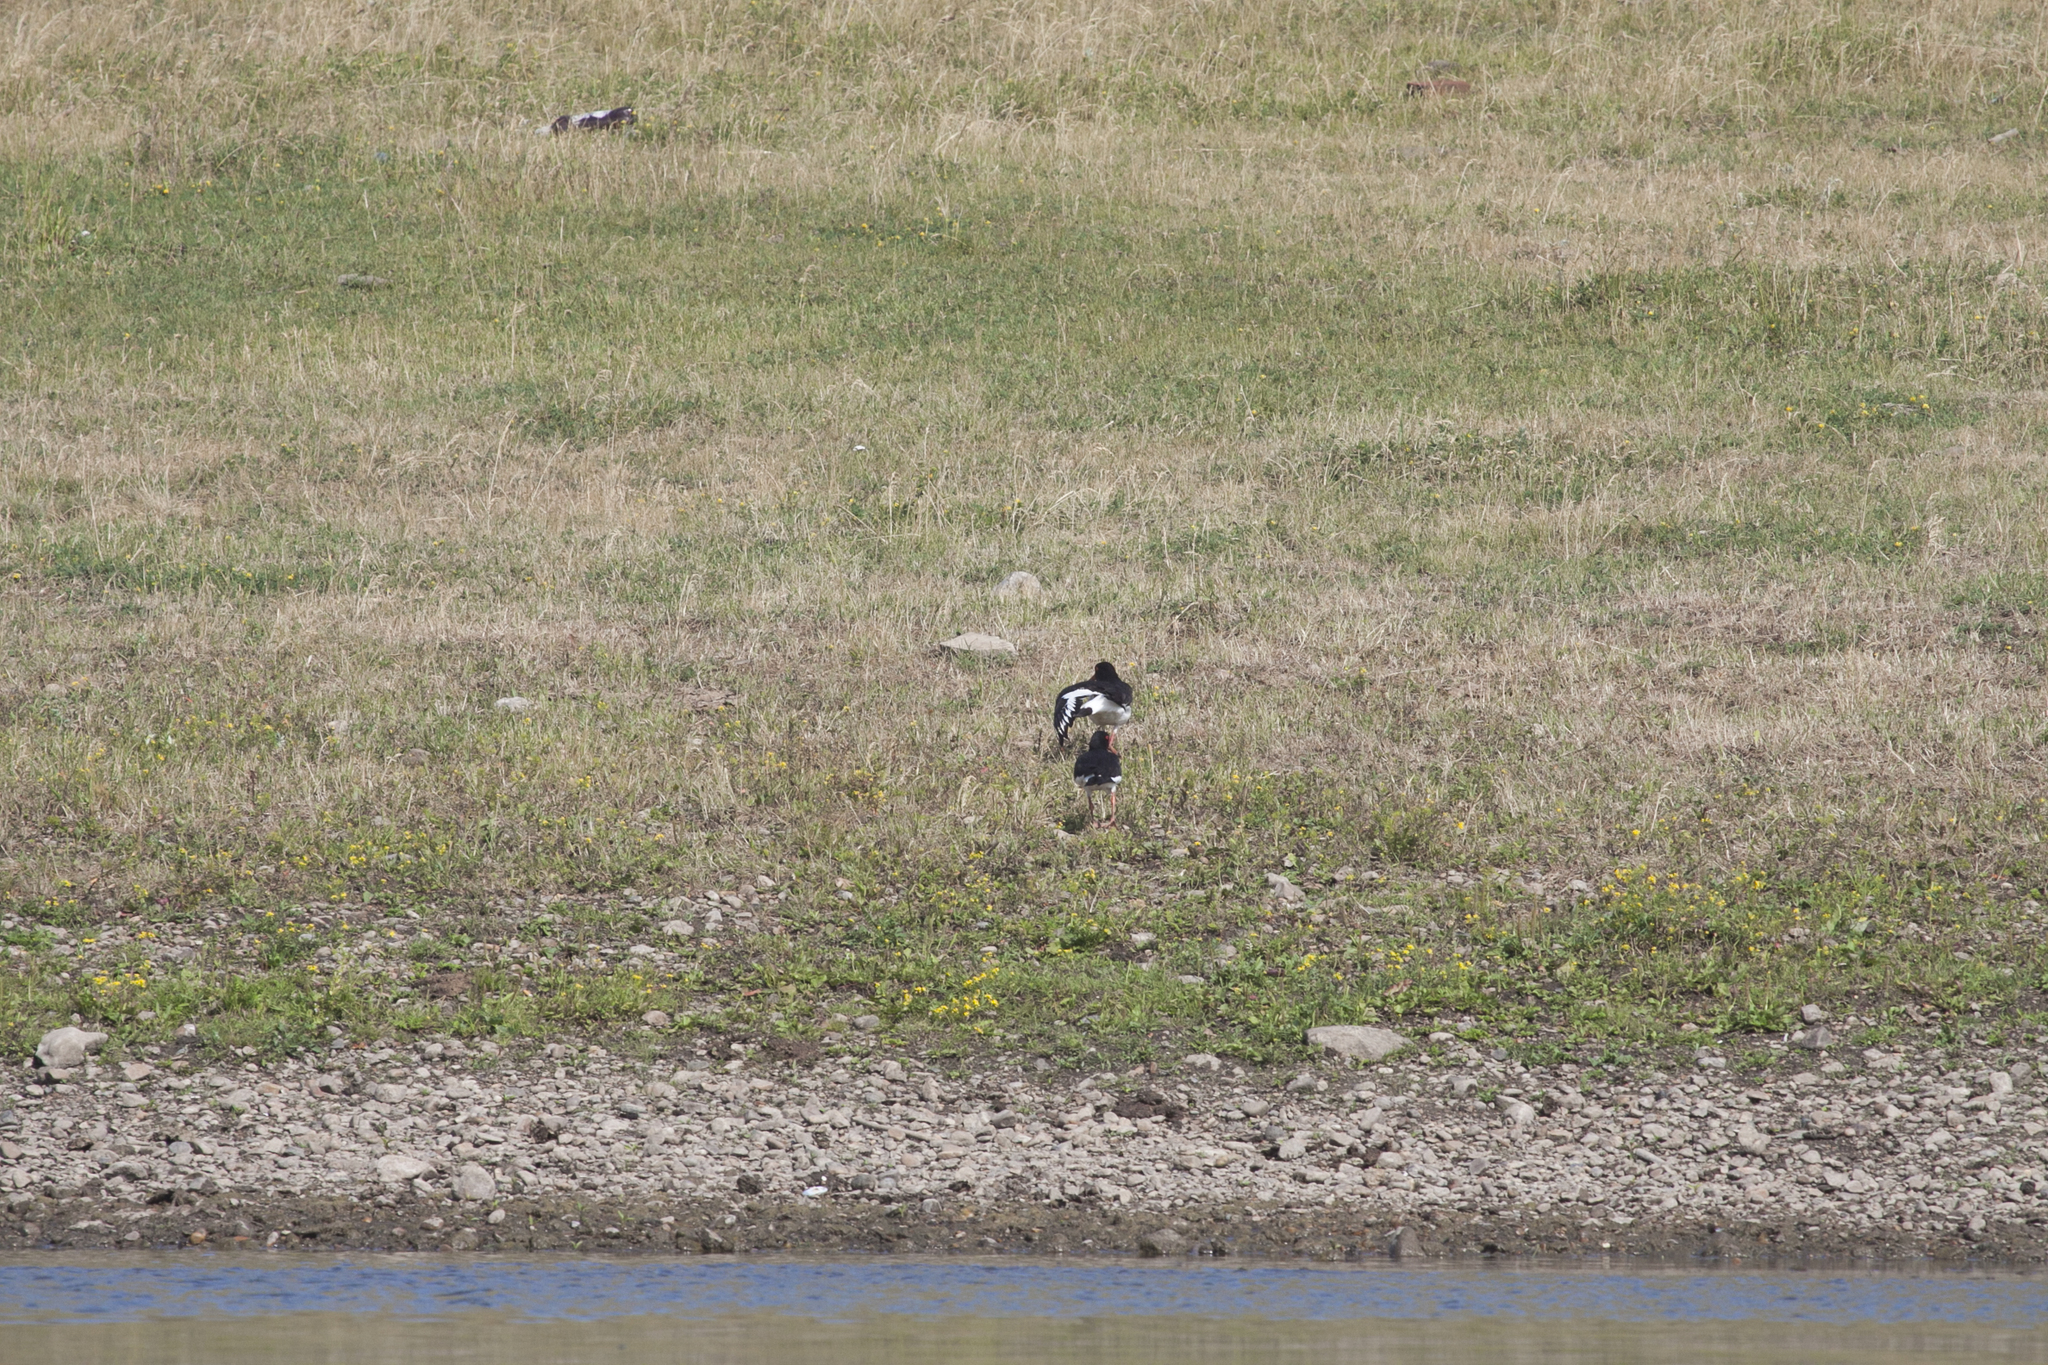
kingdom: Animalia
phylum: Chordata
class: Aves
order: Charadriiformes
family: Haematopodidae
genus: Haematopus
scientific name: Haematopus ostralegus
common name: Eurasian oystercatcher
